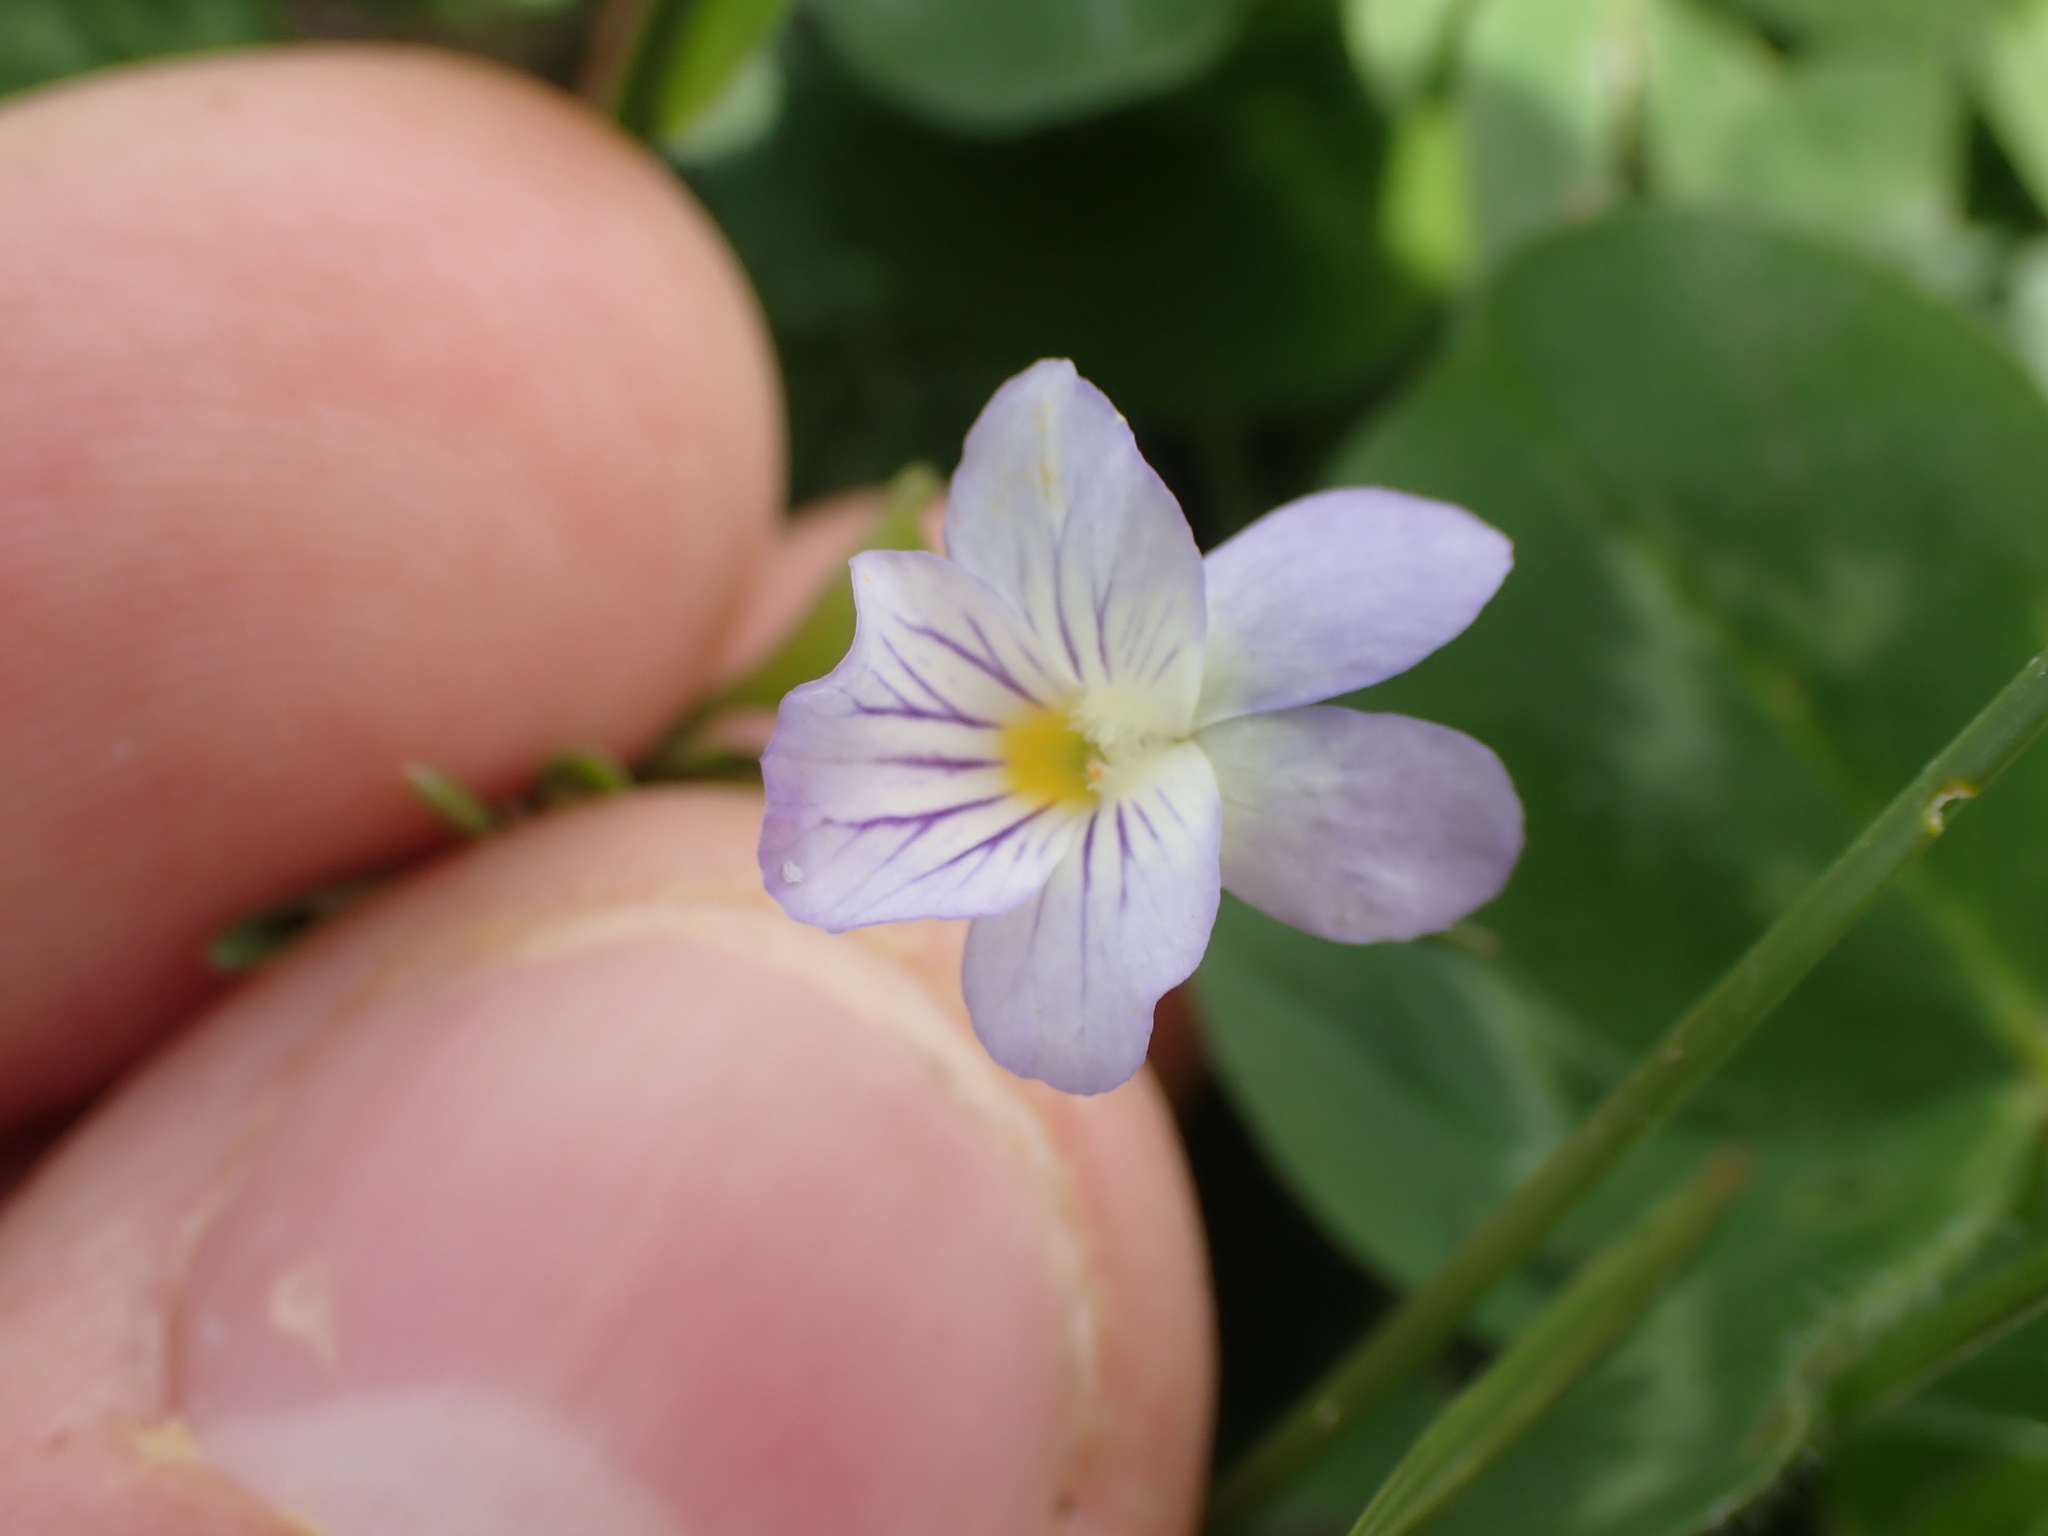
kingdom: Plantae
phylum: Tracheophyta
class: Magnoliopsida
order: Malpighiales
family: Violaceae
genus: Viola
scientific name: Viola rafinesquei
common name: American field pansy
